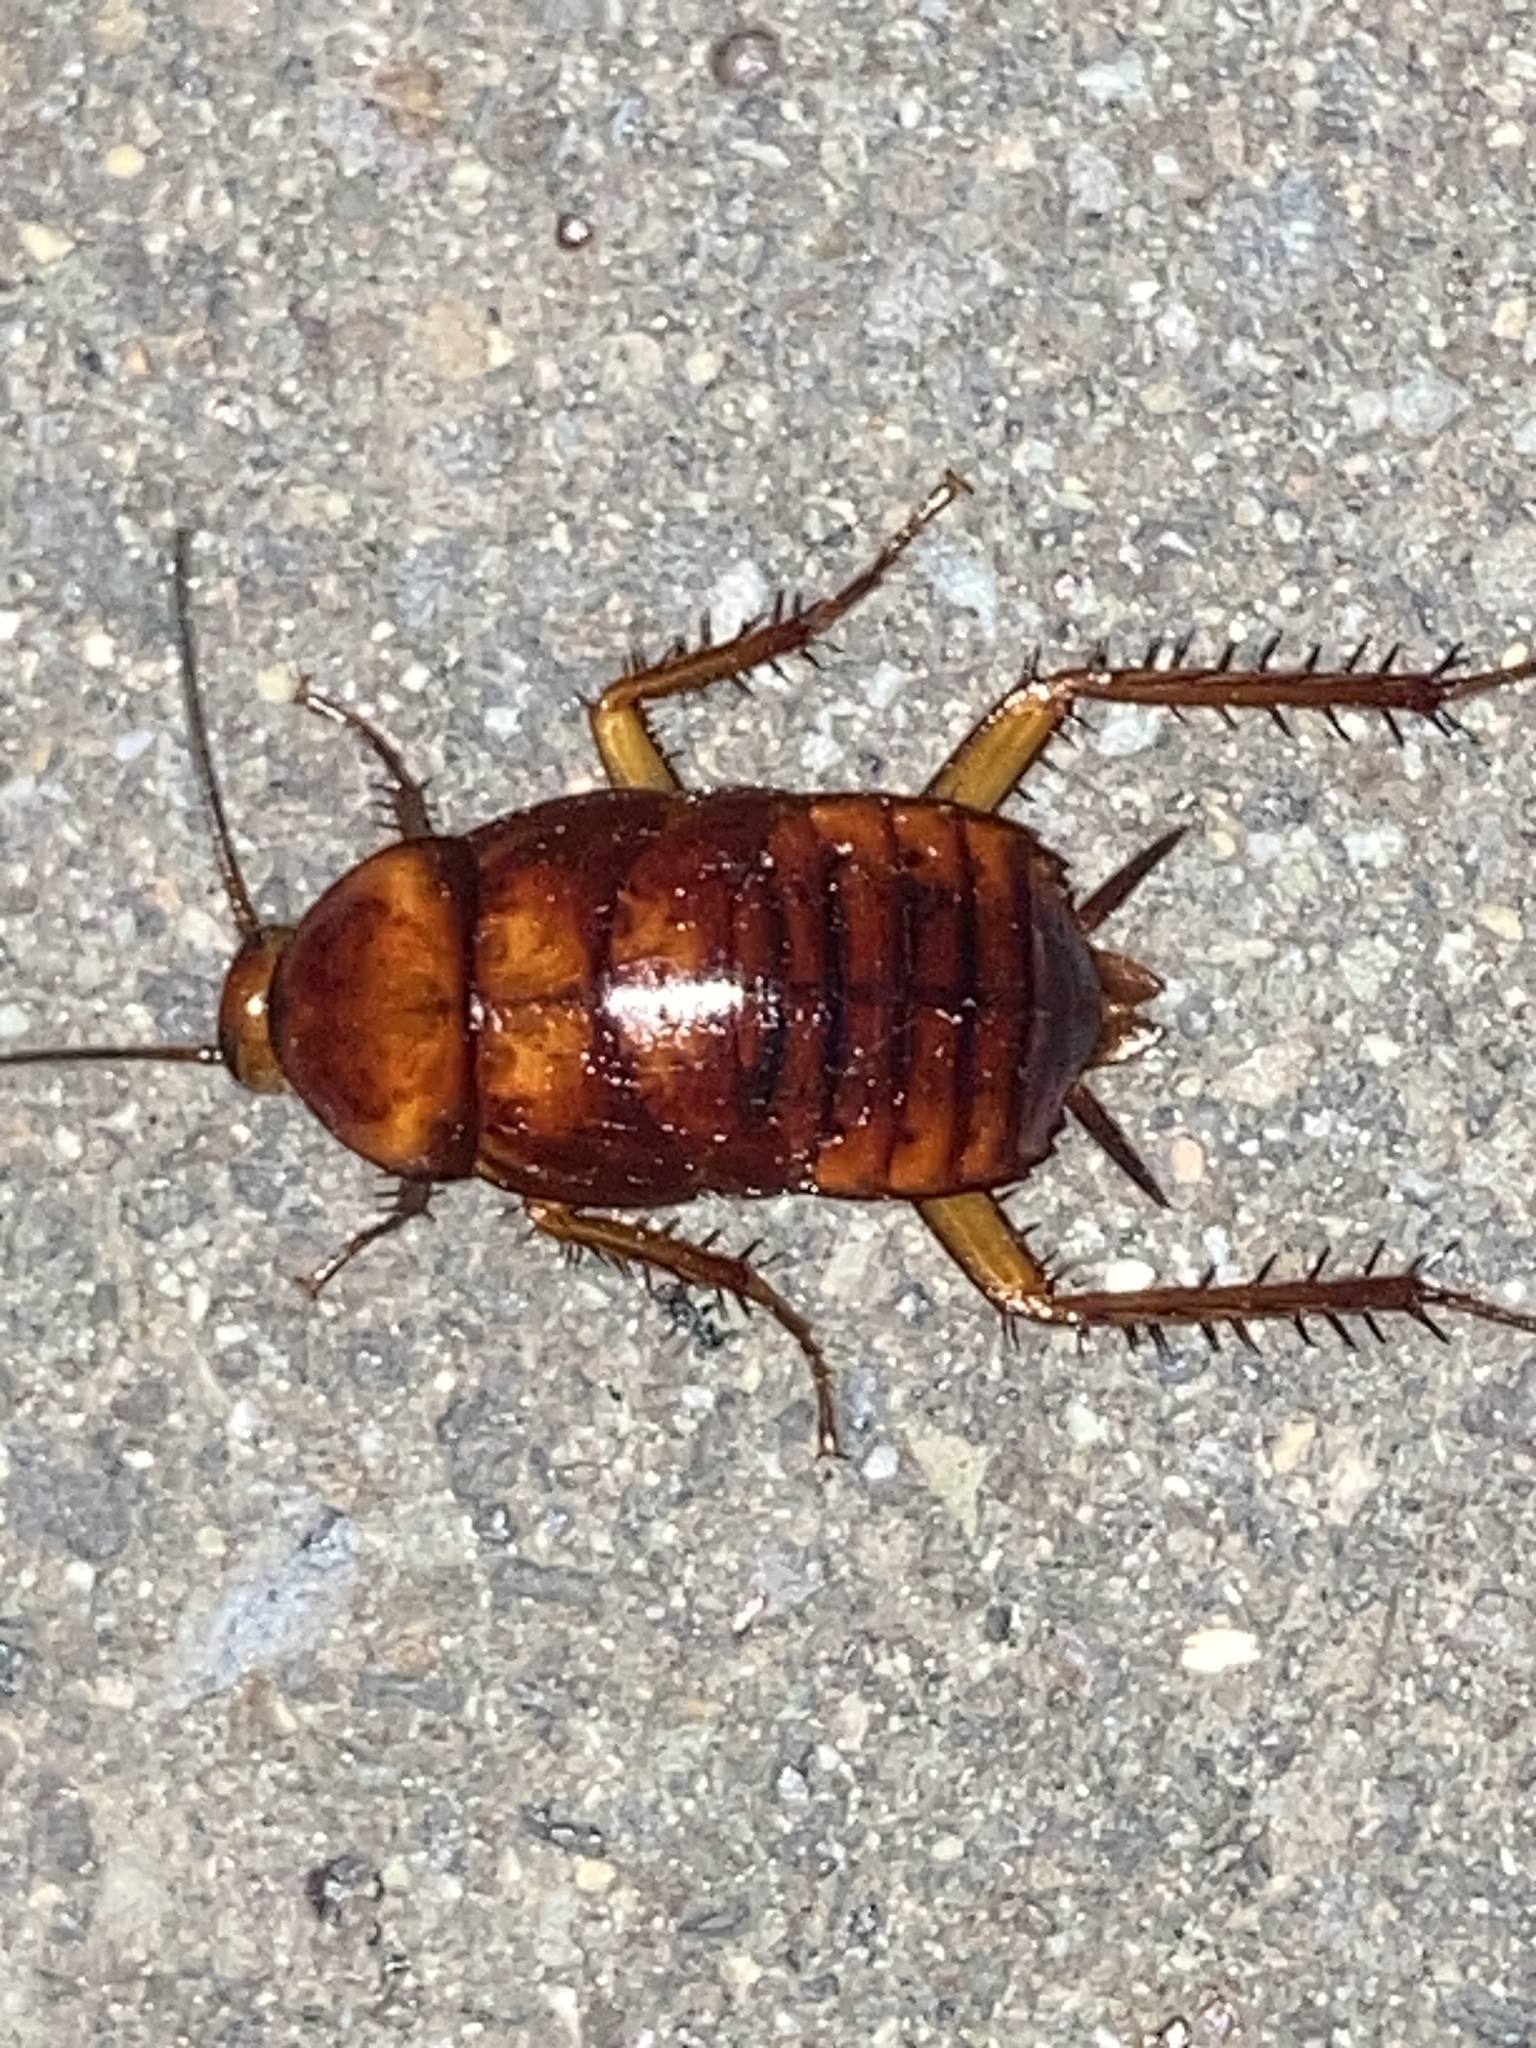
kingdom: Animalia
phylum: Arthropoda
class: Insecta
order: Blattodea
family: Blattidae
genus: Periplaneta
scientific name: Periplaneta americana
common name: American cockroach
